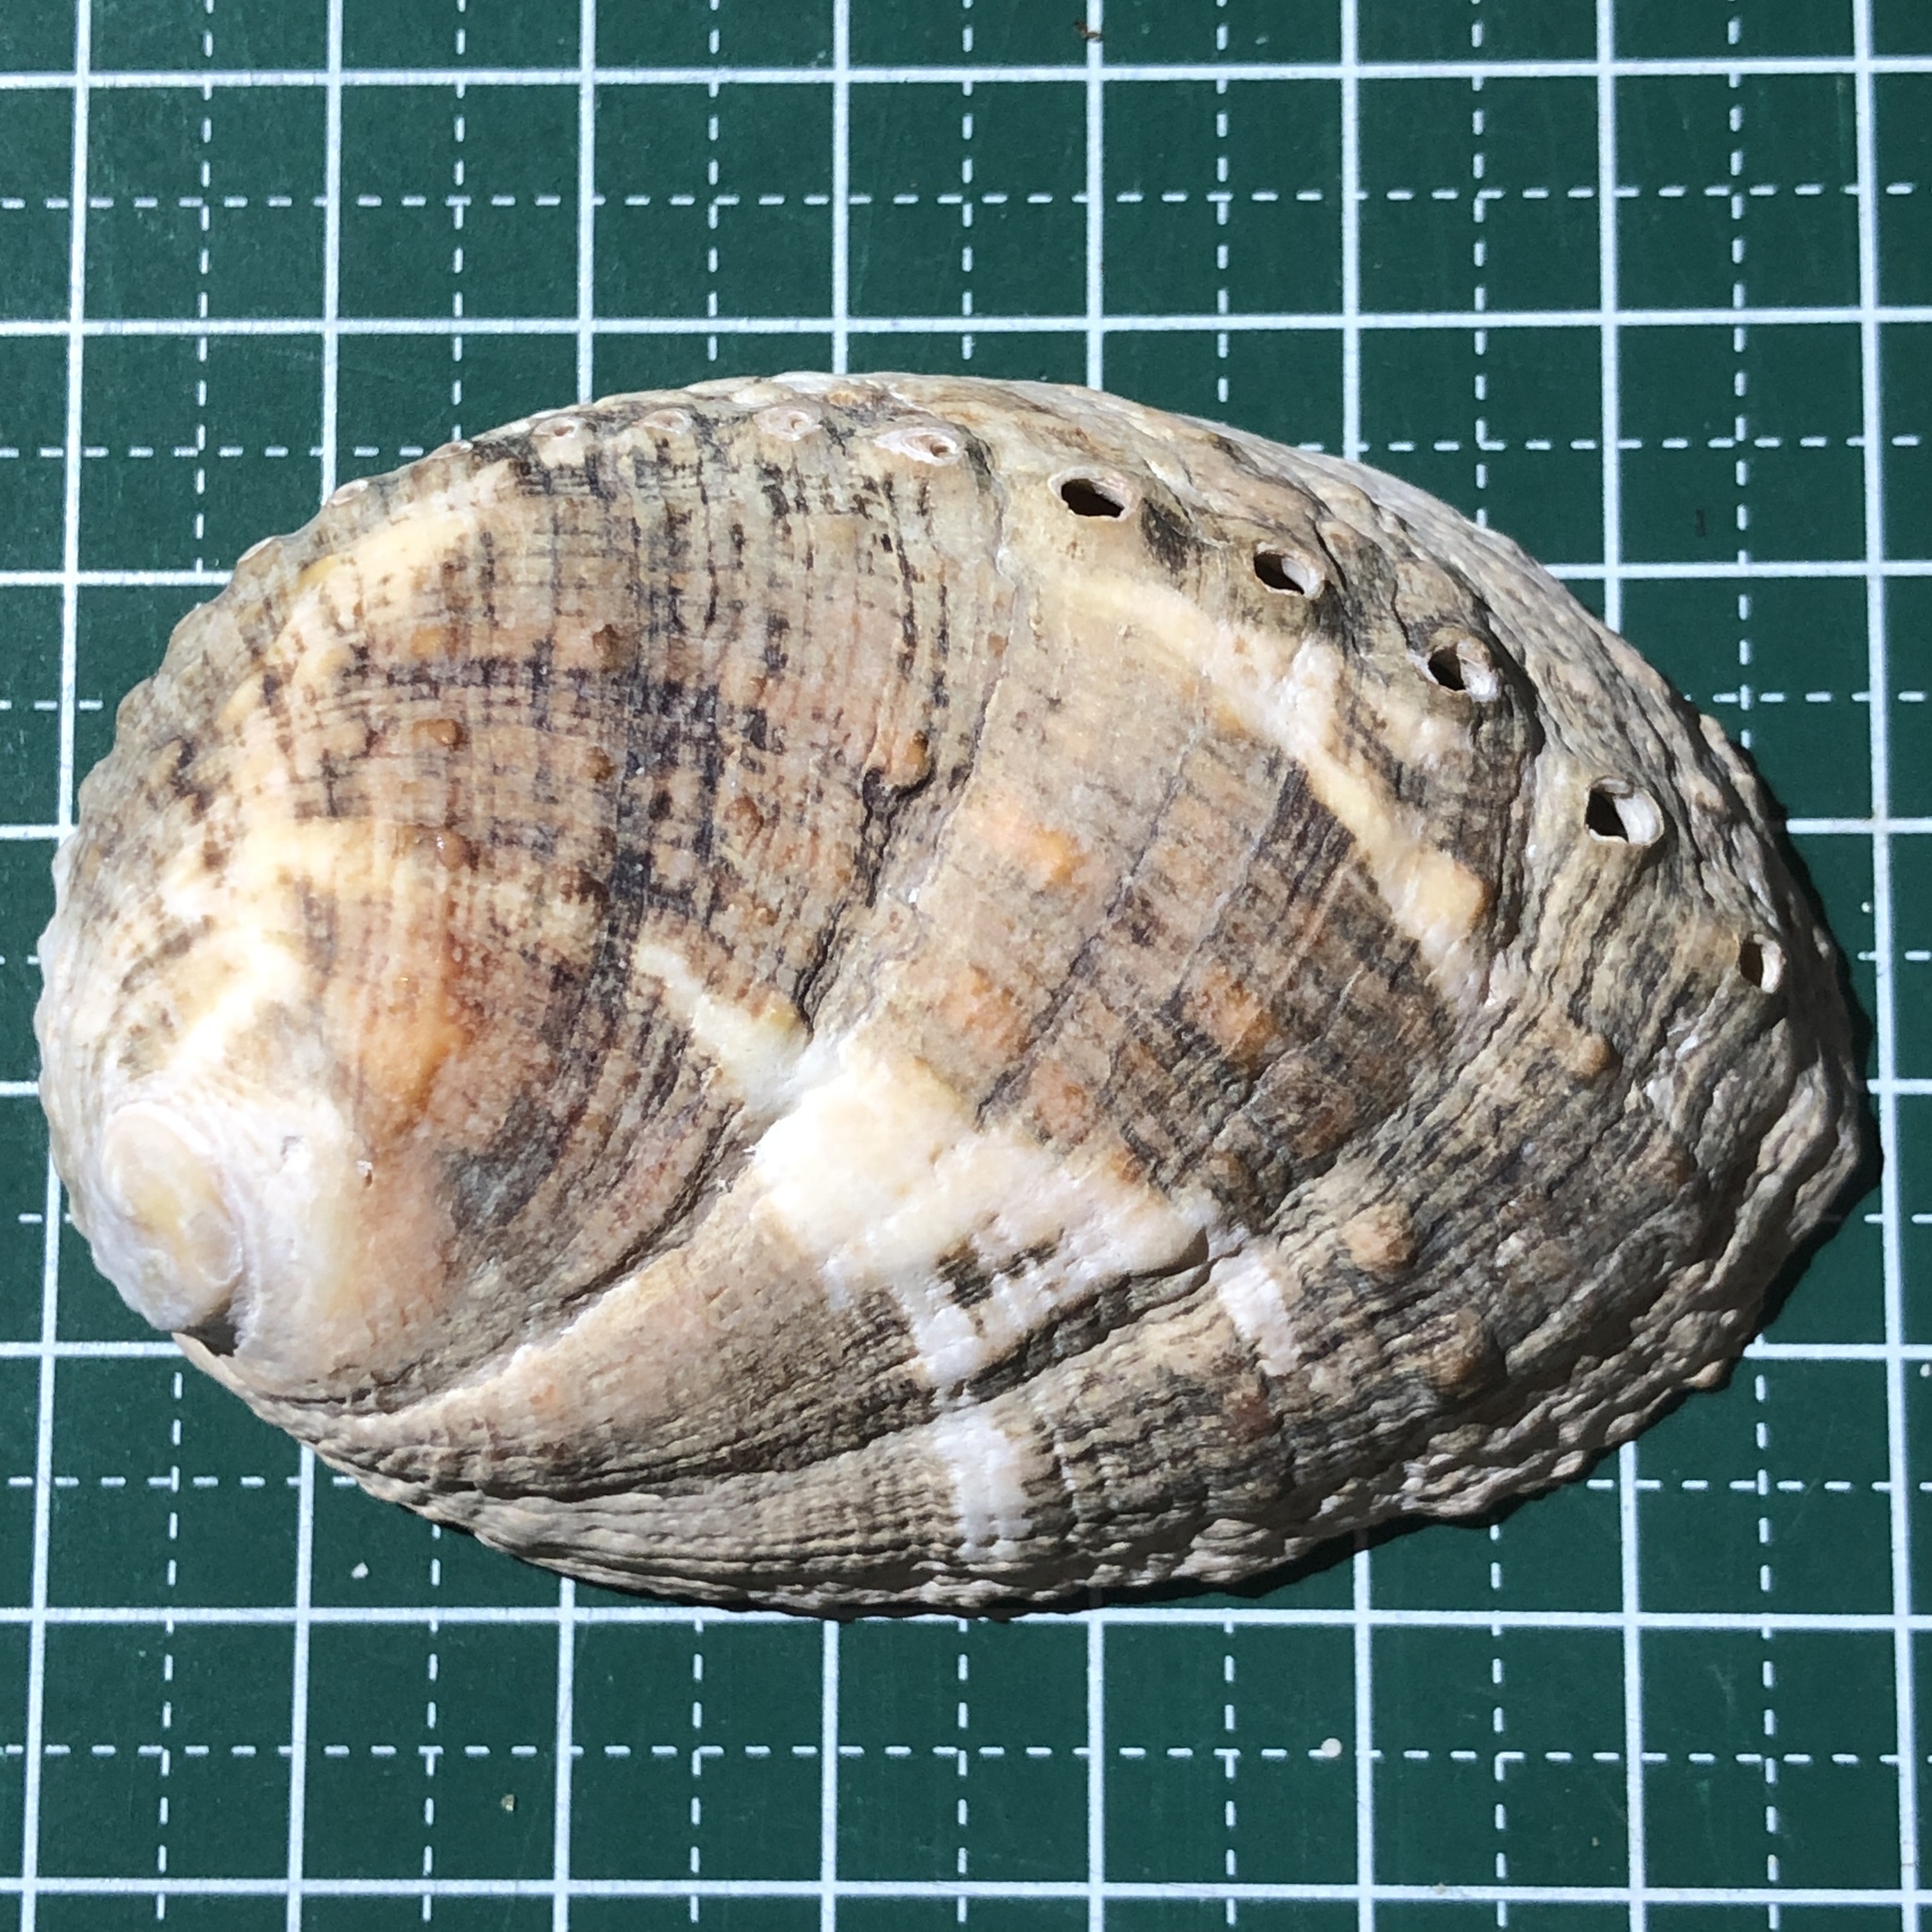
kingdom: Animalia
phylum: Mollusca
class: Gastropoda
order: Lepetellida
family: Haliotidae
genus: Haliotis
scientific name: Haliotis varia
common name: Variable abalone
